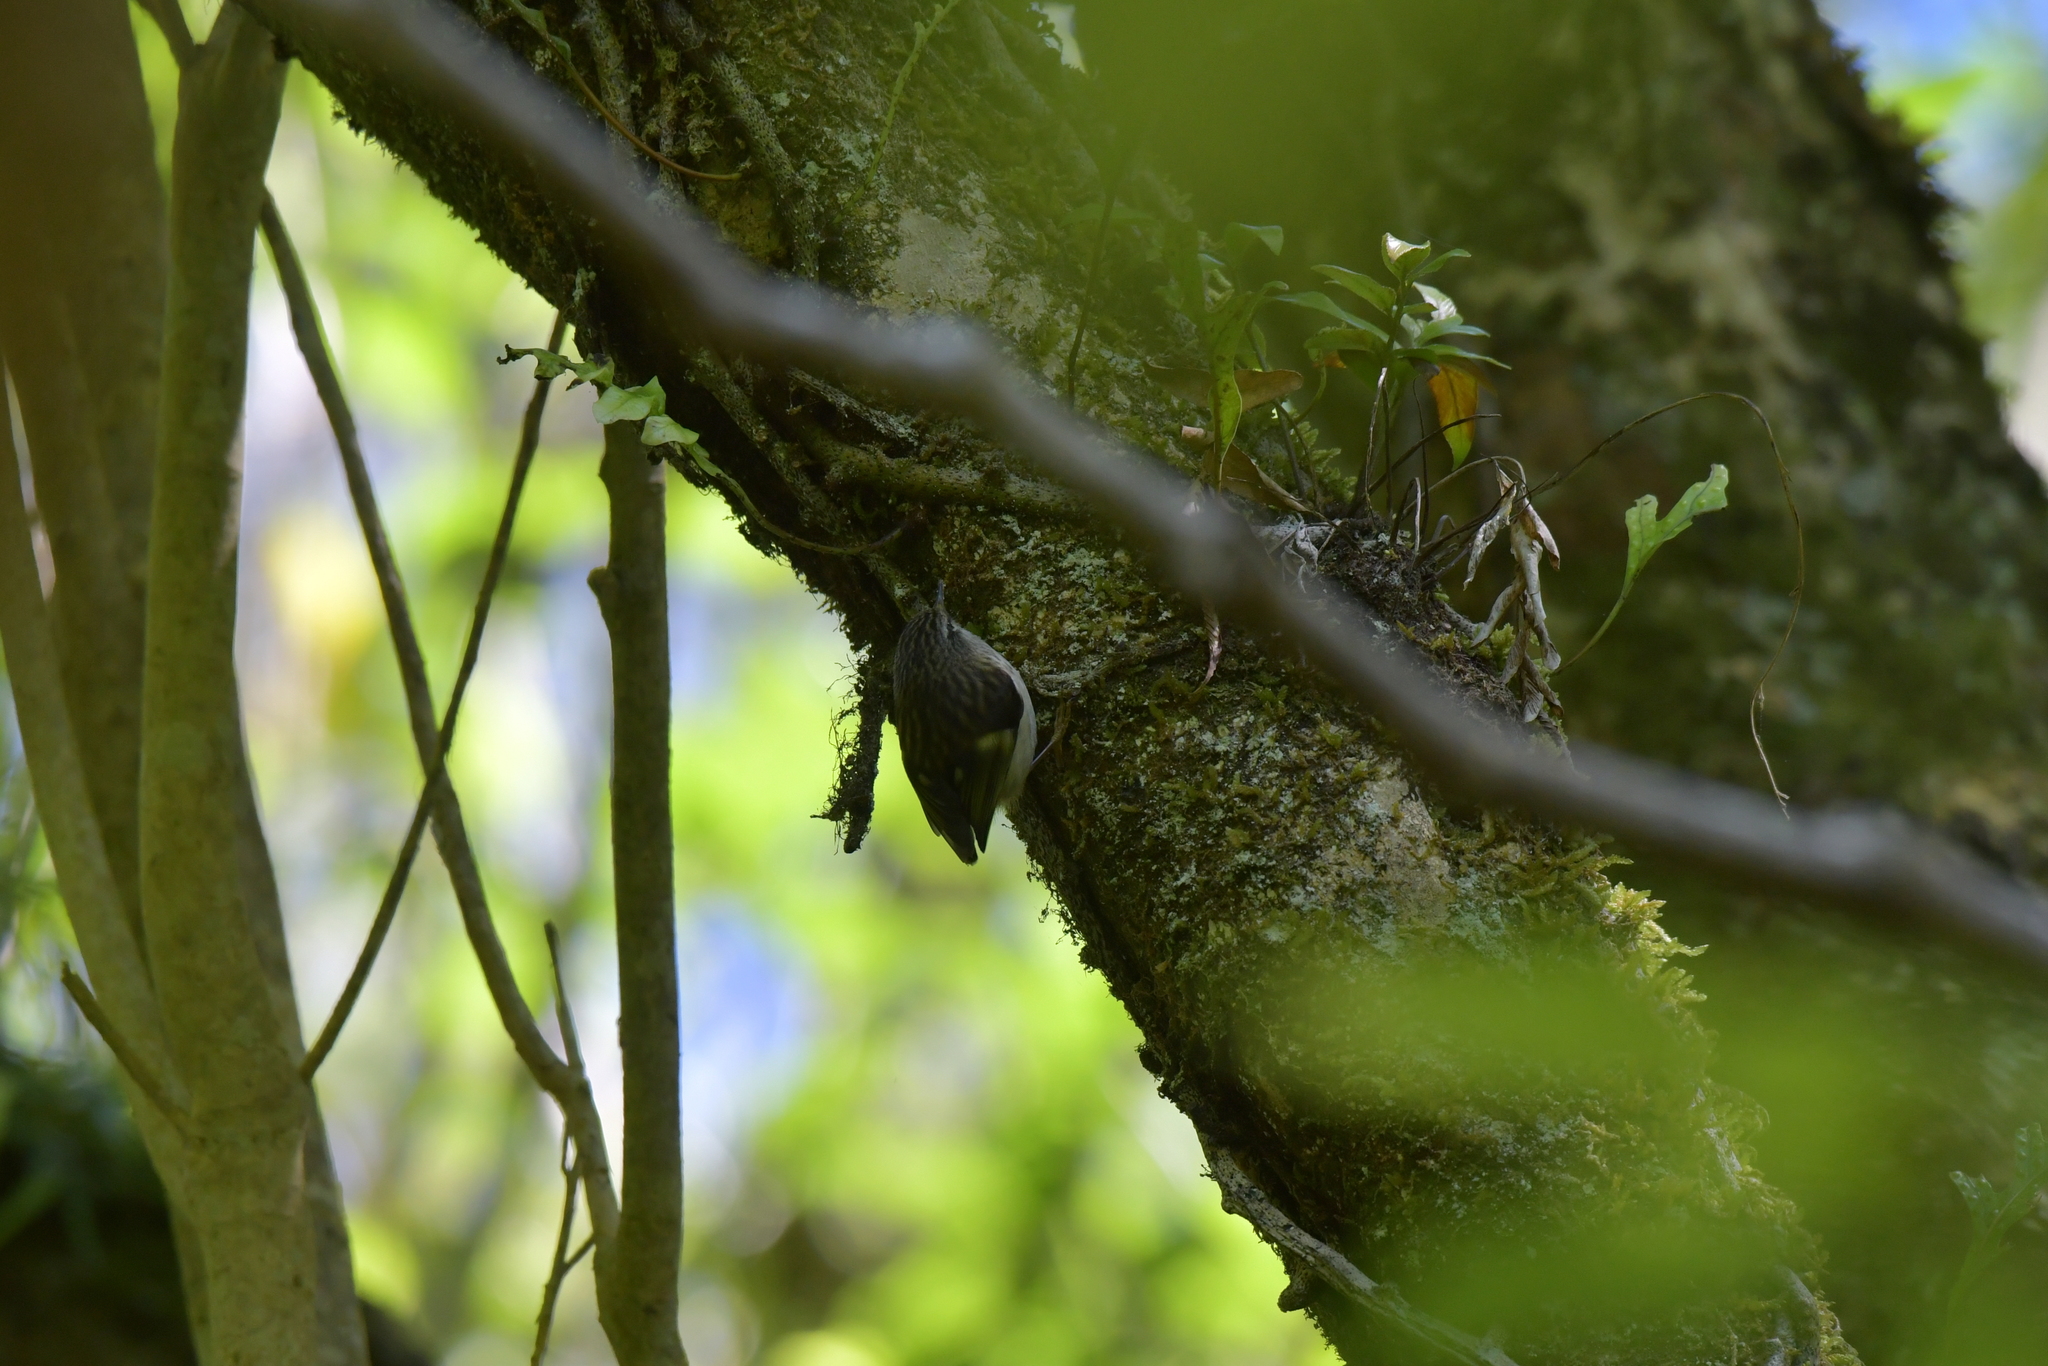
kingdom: Animalia
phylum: Chordata
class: Aves
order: Passeriformes
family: Acanthisittidae
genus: Acanthisitta
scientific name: Acanthisitta chloris
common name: Rifleman
